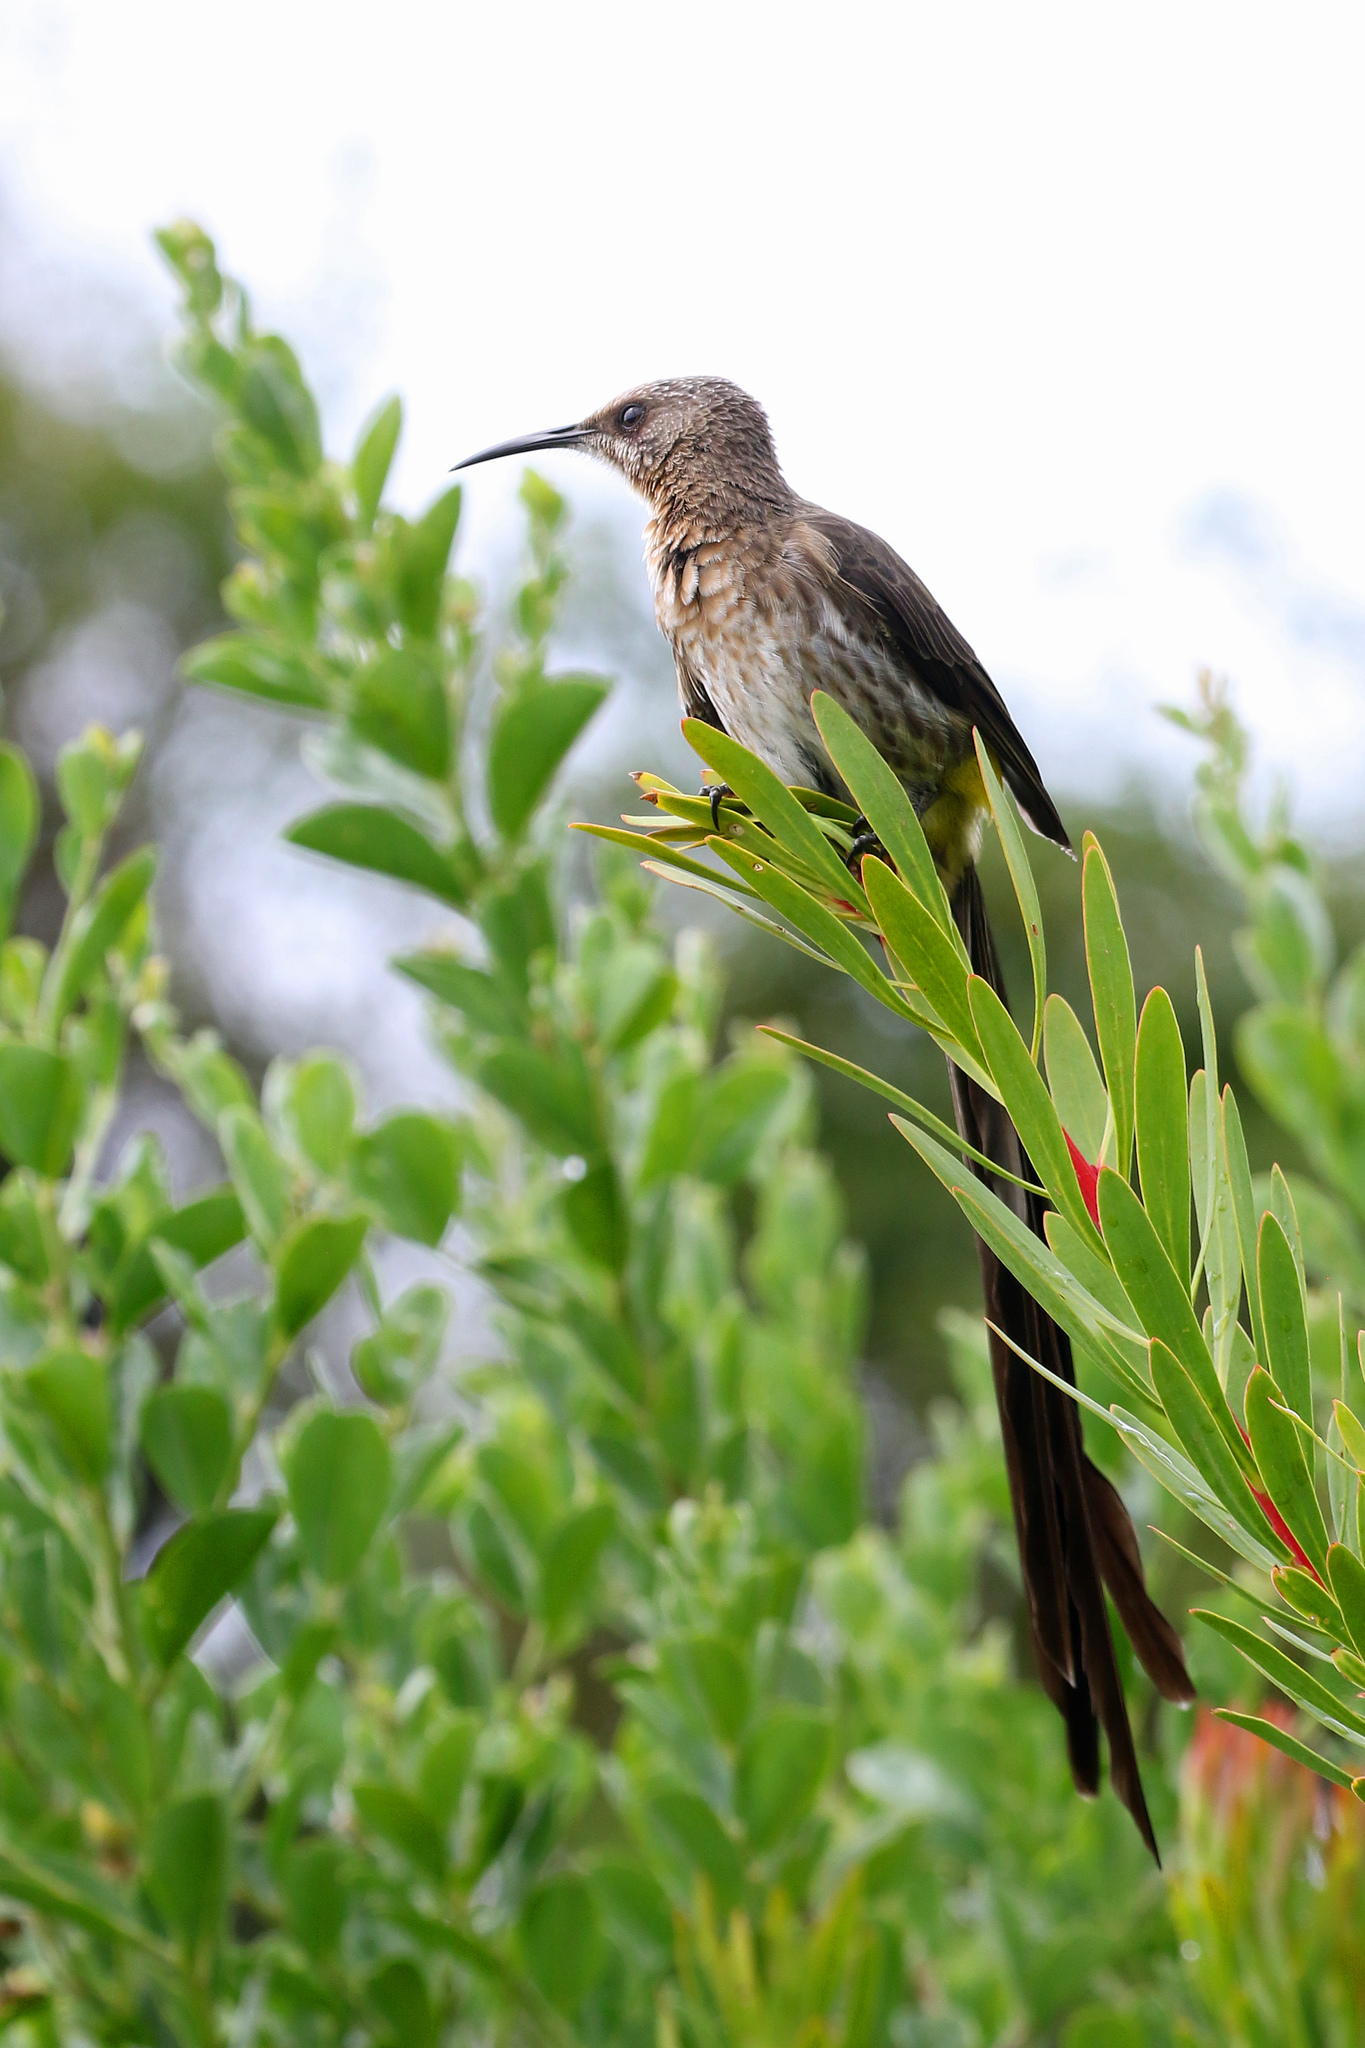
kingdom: Animalia
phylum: Chordata
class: Aves
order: Passeriformes
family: Promeropidae
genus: Promerops
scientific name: Promerops cafer
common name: Cape sugarbird
